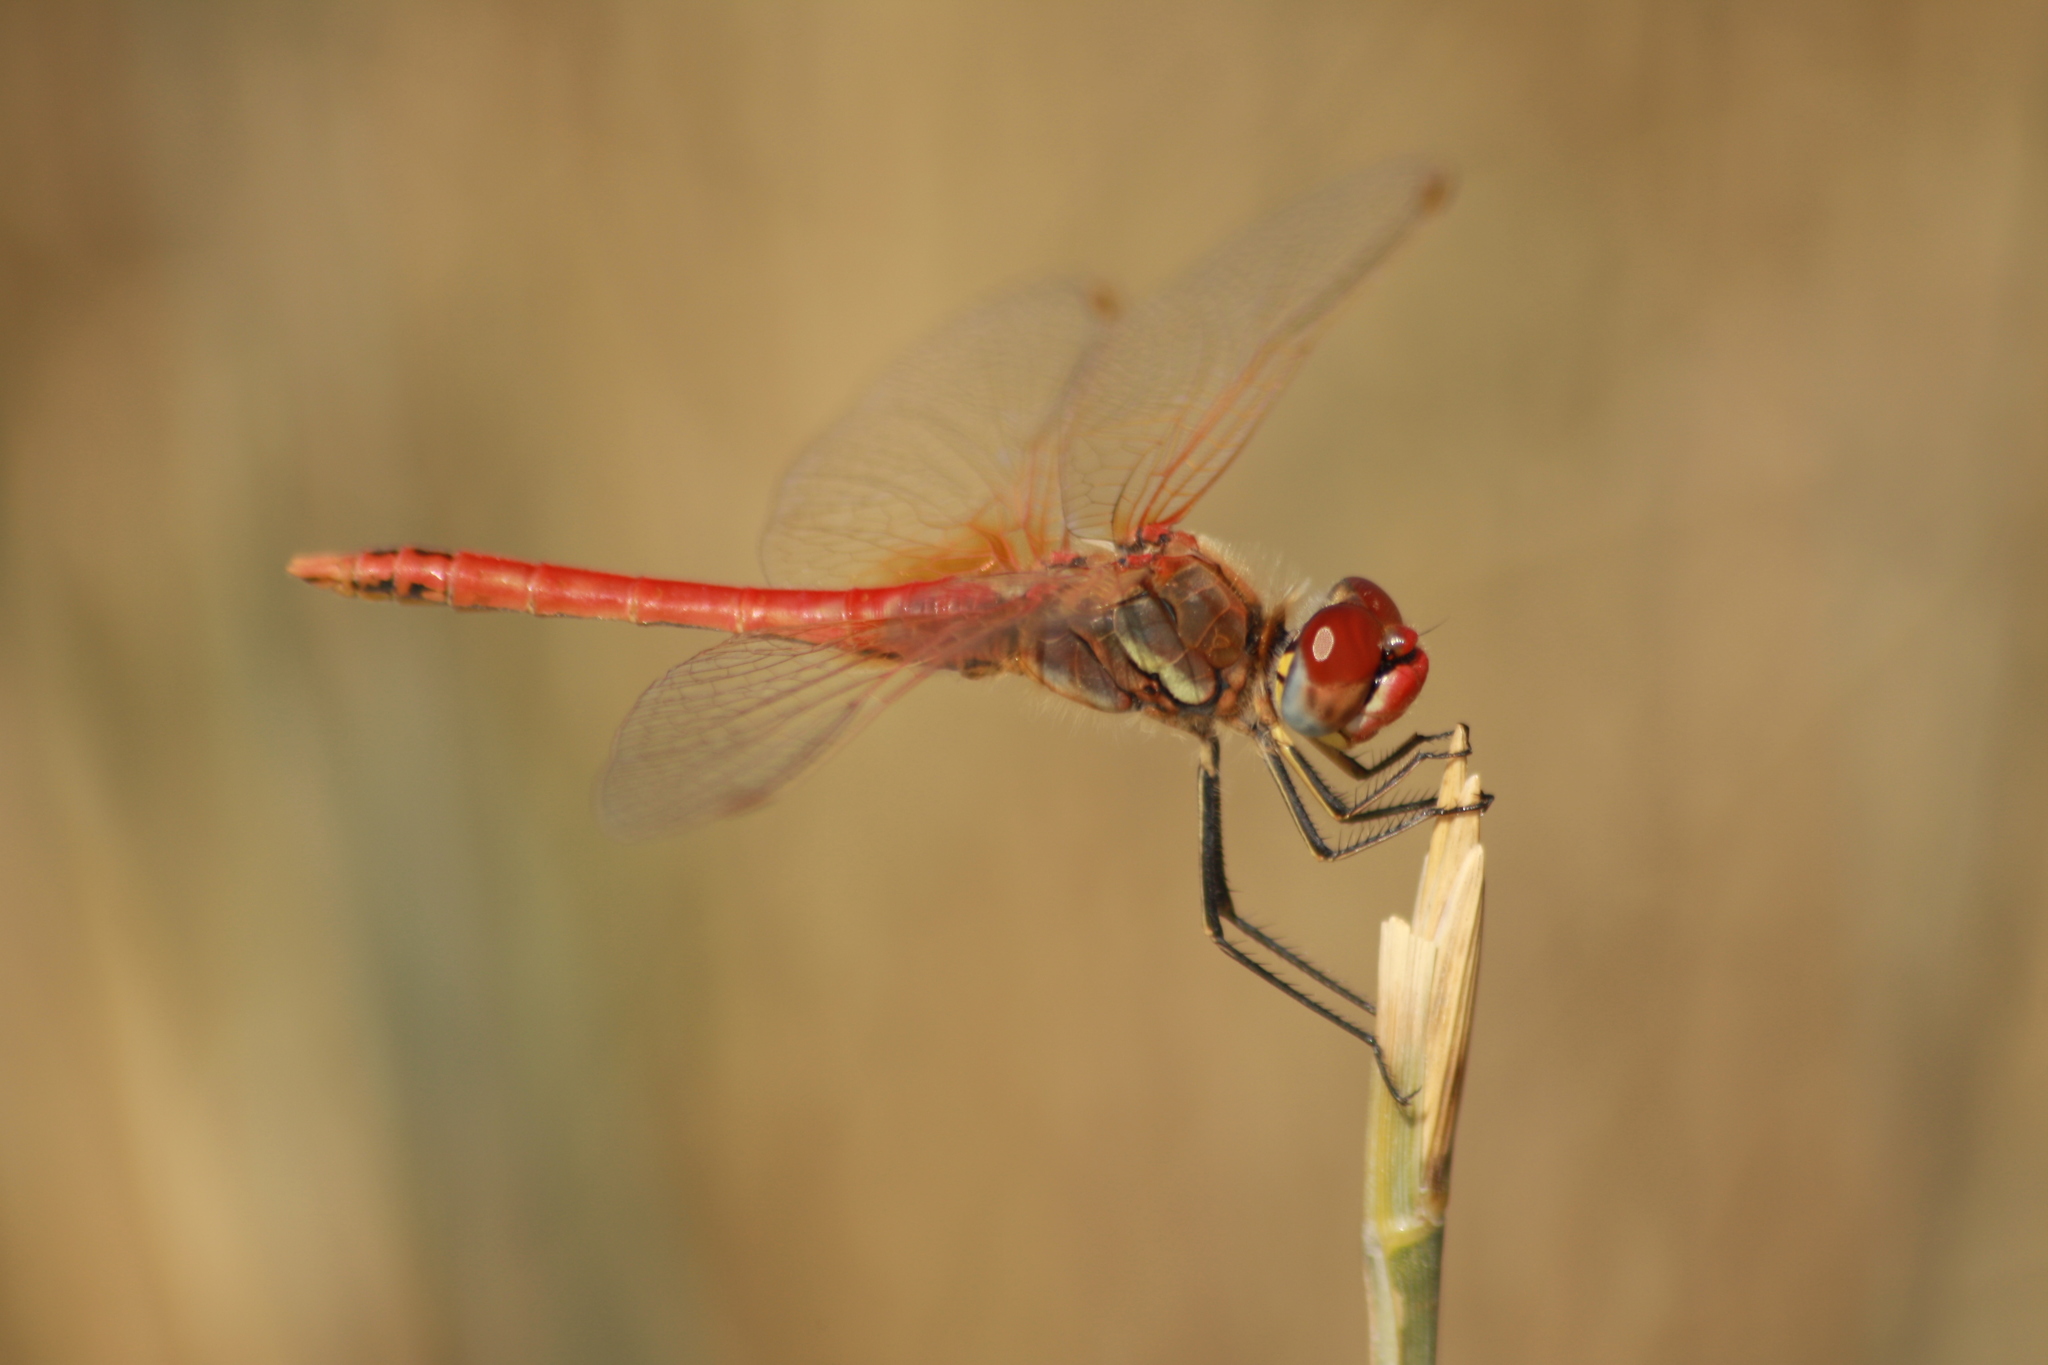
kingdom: Animalia
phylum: Arthropoda
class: Insecta
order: Odonata
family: Libellulidae
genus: Sympetrum
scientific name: Sympetrum fonscolombii
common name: Red-veined darter
